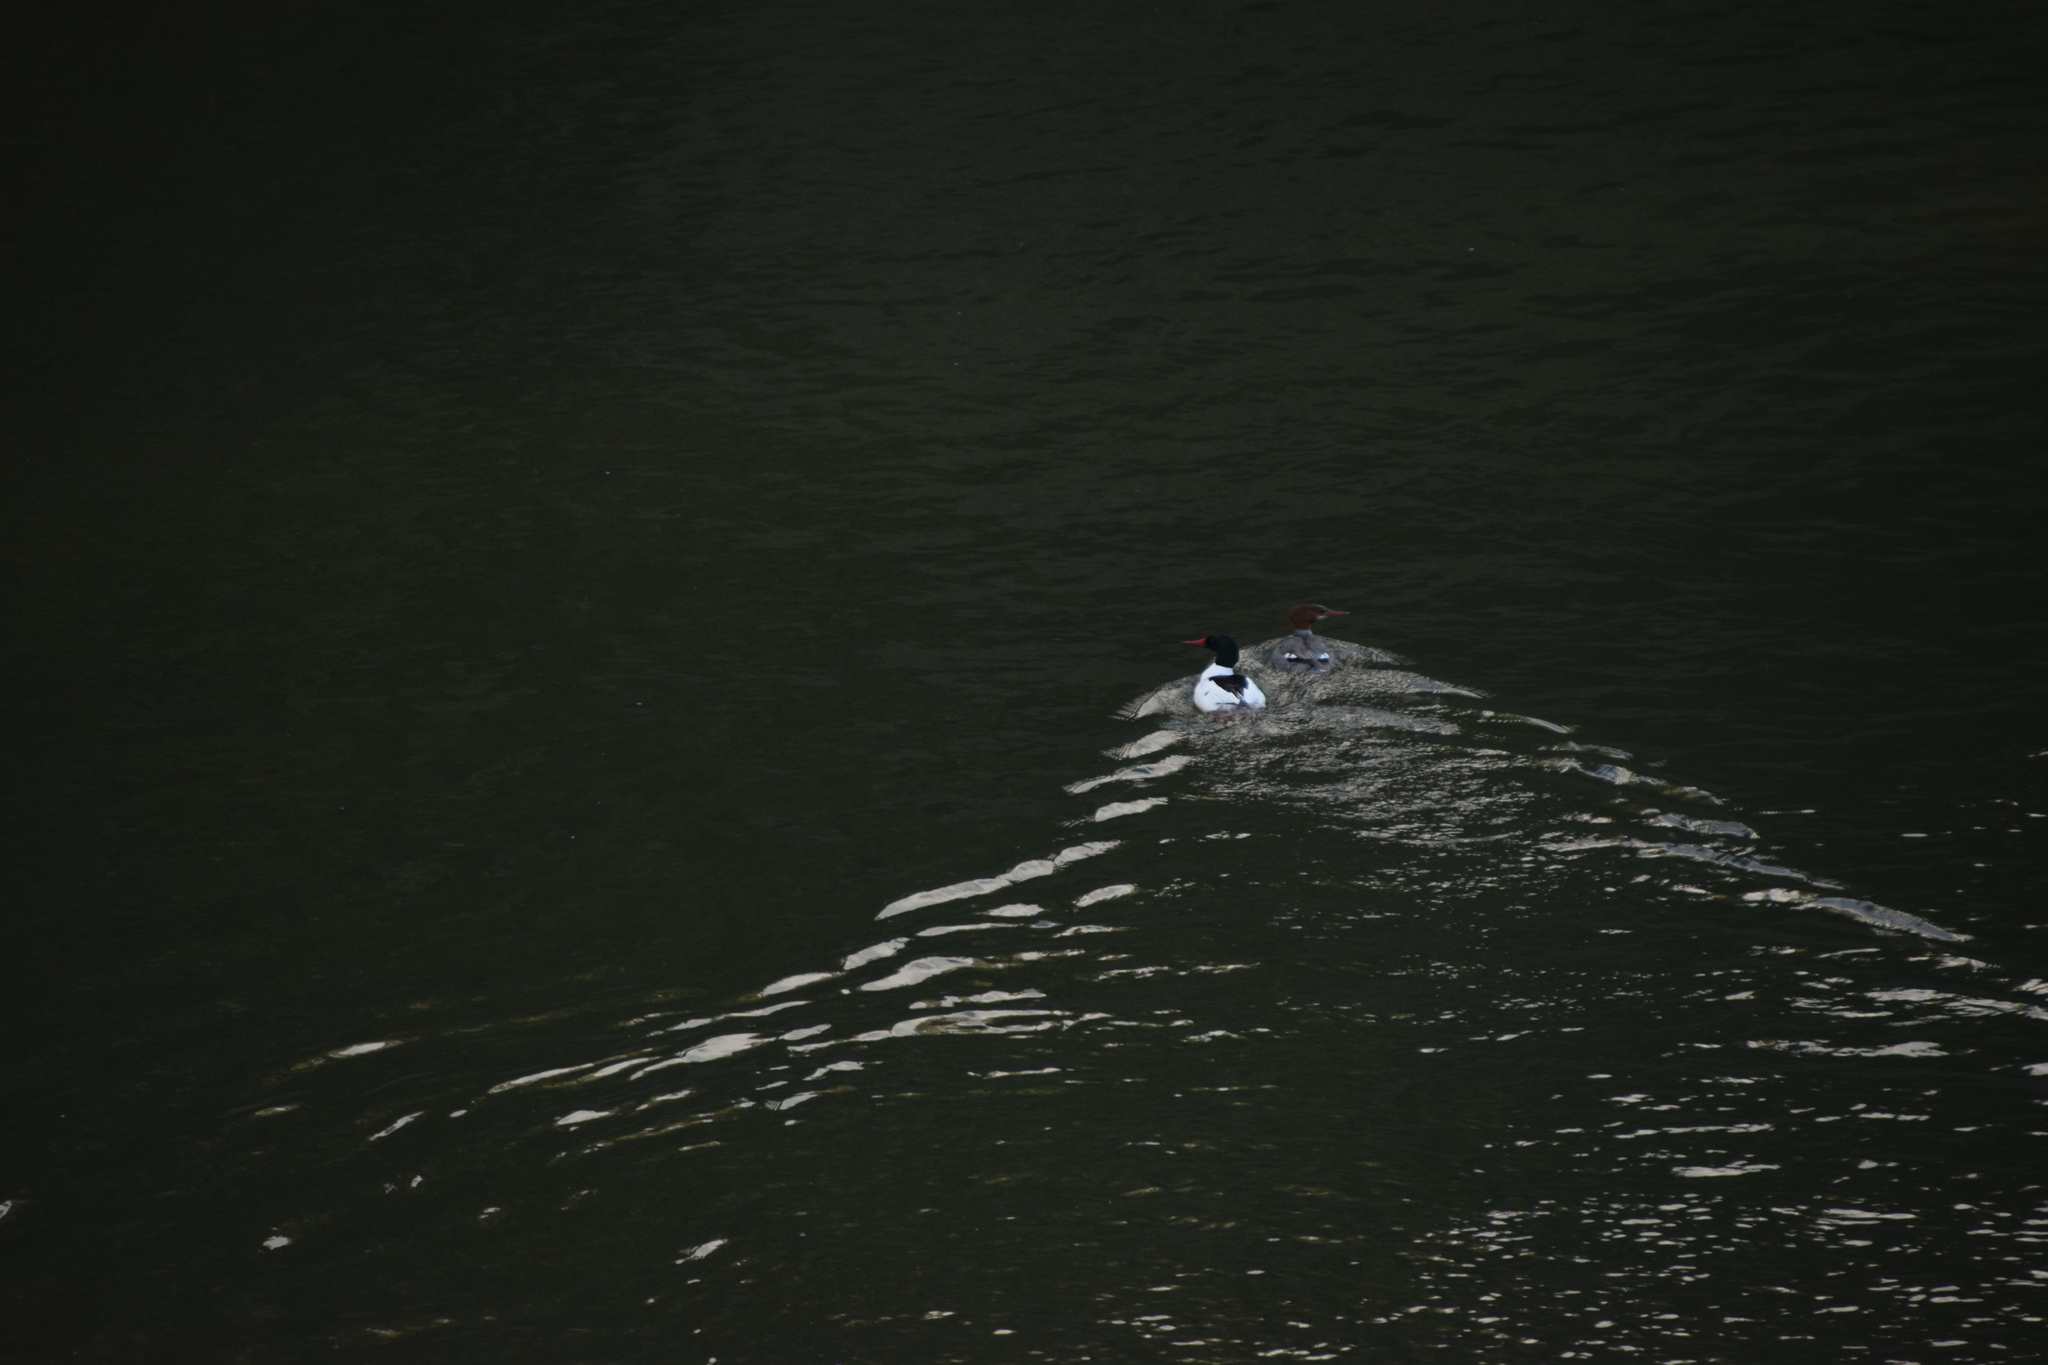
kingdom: Animalia
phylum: Chordata
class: Aves
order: Anseriformes
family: Anatidae
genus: Mergus
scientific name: Mergus merganser
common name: Common merganser
